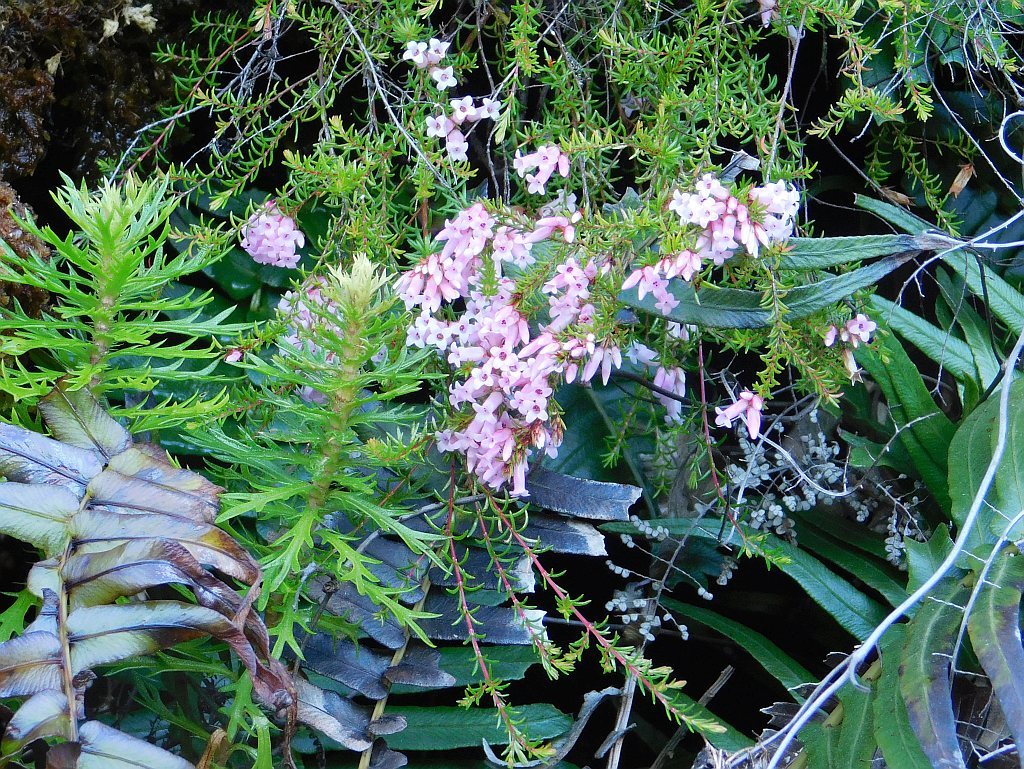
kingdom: Plantae
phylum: Tracheophyta
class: Magnoliopsida
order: Ericales
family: Ericaceae
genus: Erica
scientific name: Erica leucantha
